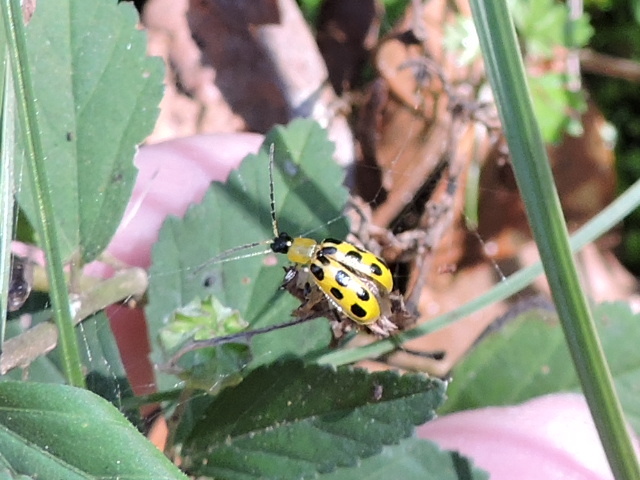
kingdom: Animalia
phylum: Arthropoda
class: Insecta
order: Coleoptera
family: Chrysomelidae
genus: Diabrotica
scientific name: Diabrotica undecimpunctata
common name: Spotted cucumber beetle
